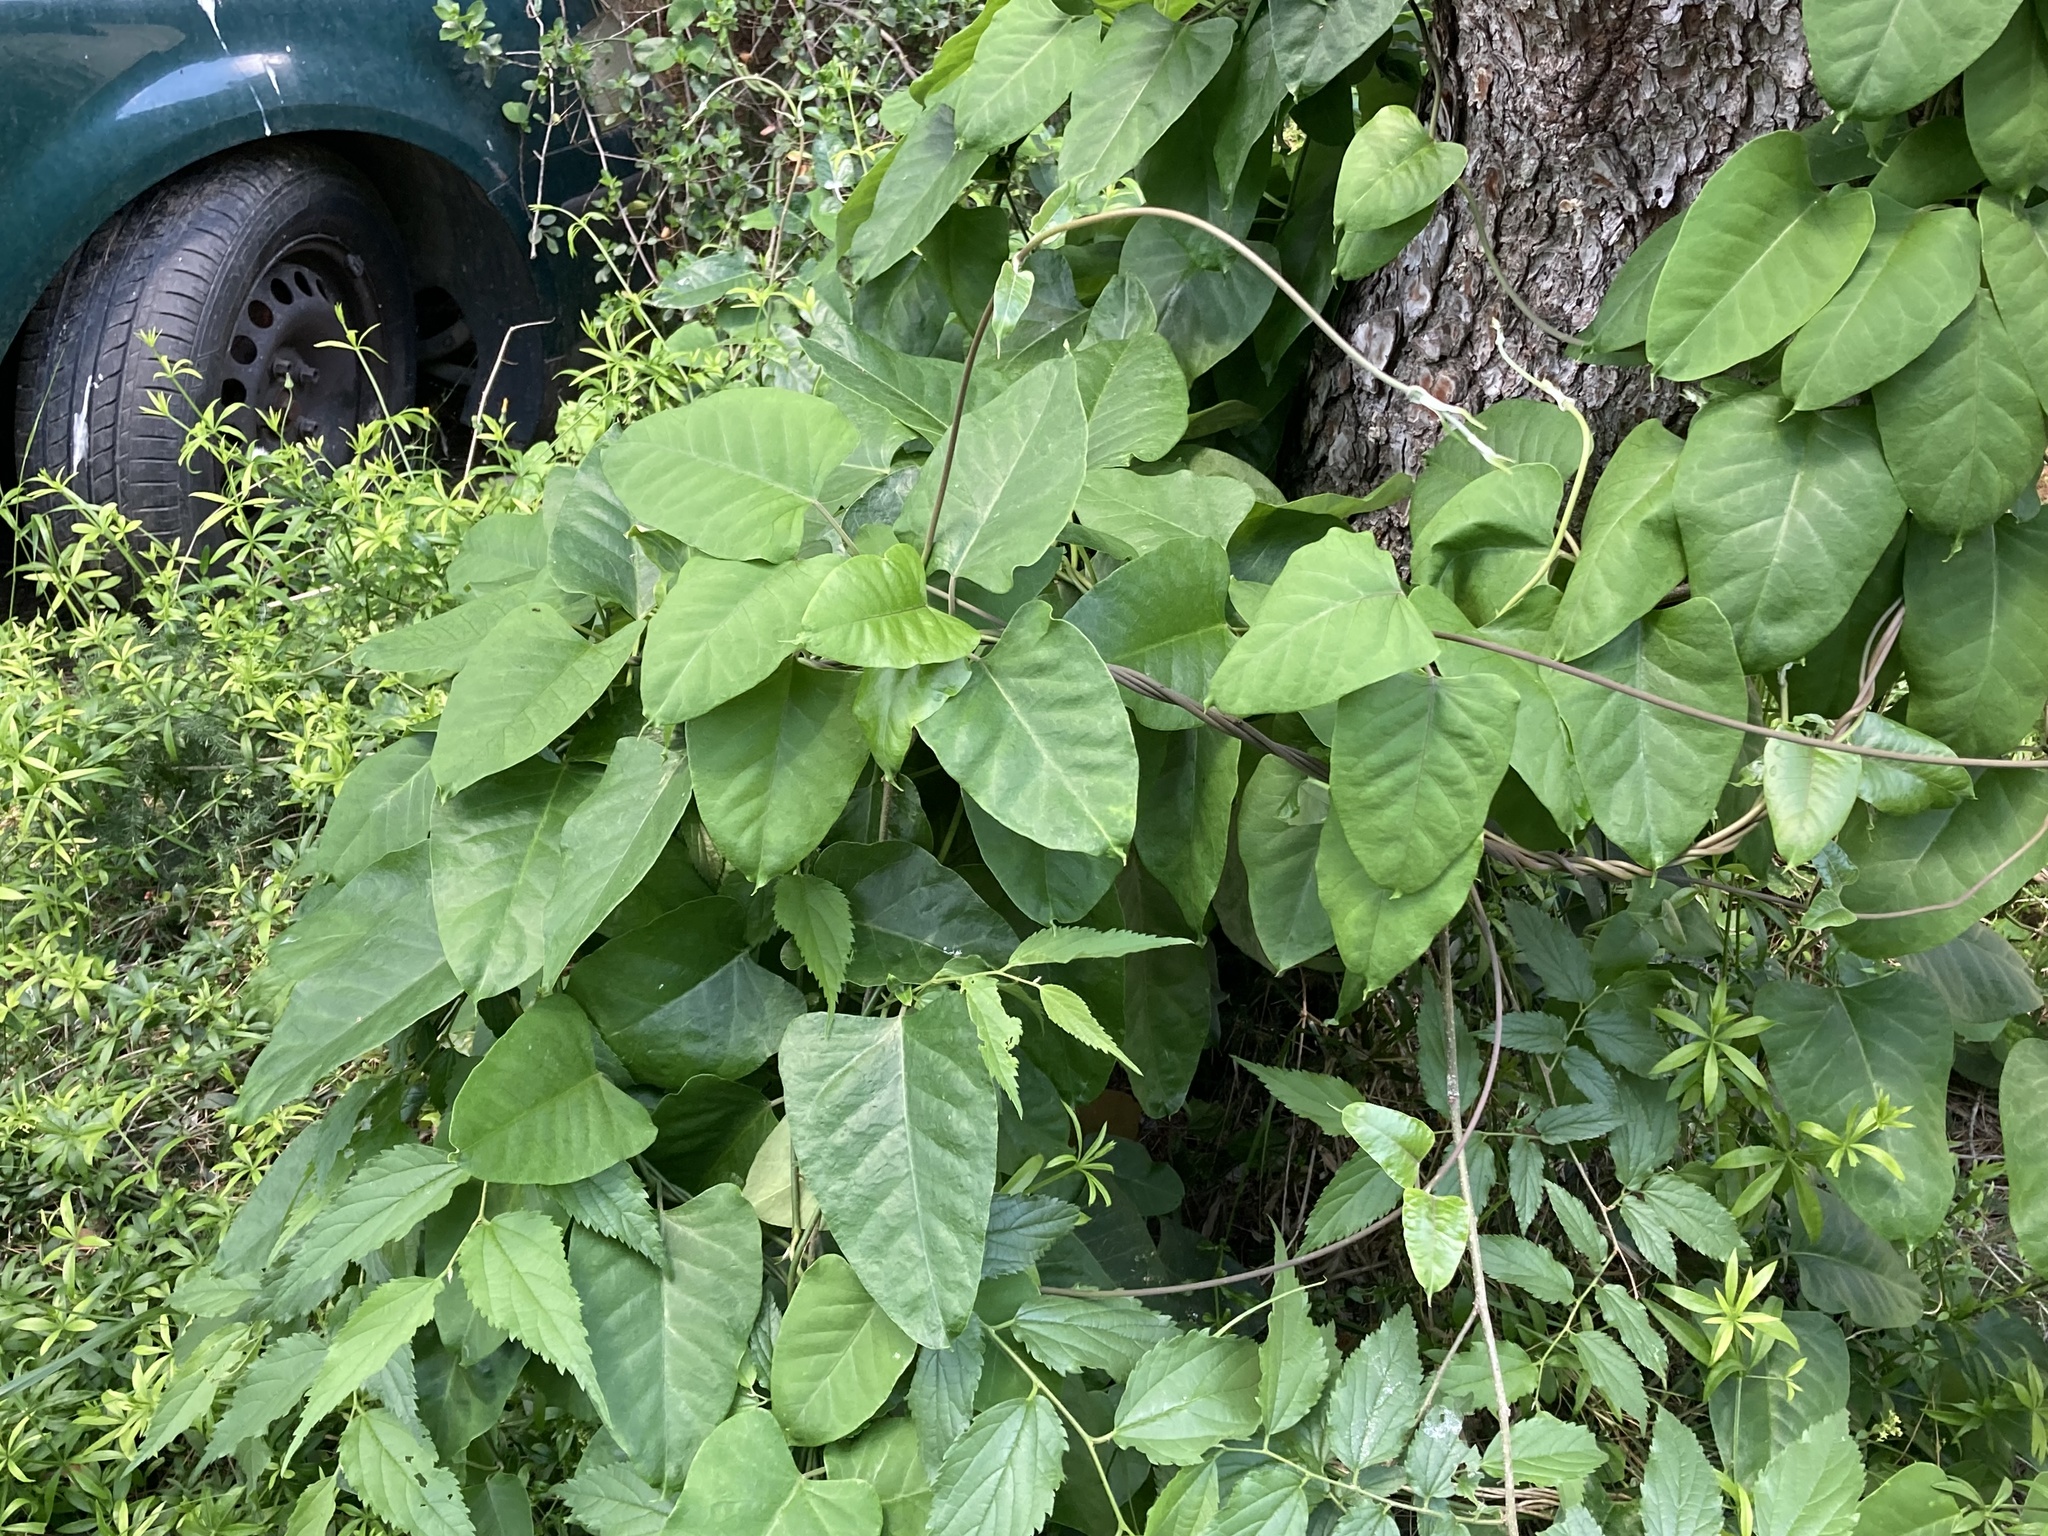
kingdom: Plantae
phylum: Tracheophyta
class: Magnoliopsida
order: Gentianales
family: Apocynaceae
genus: Araujia
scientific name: Araujia sericifera
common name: White bladderflower
